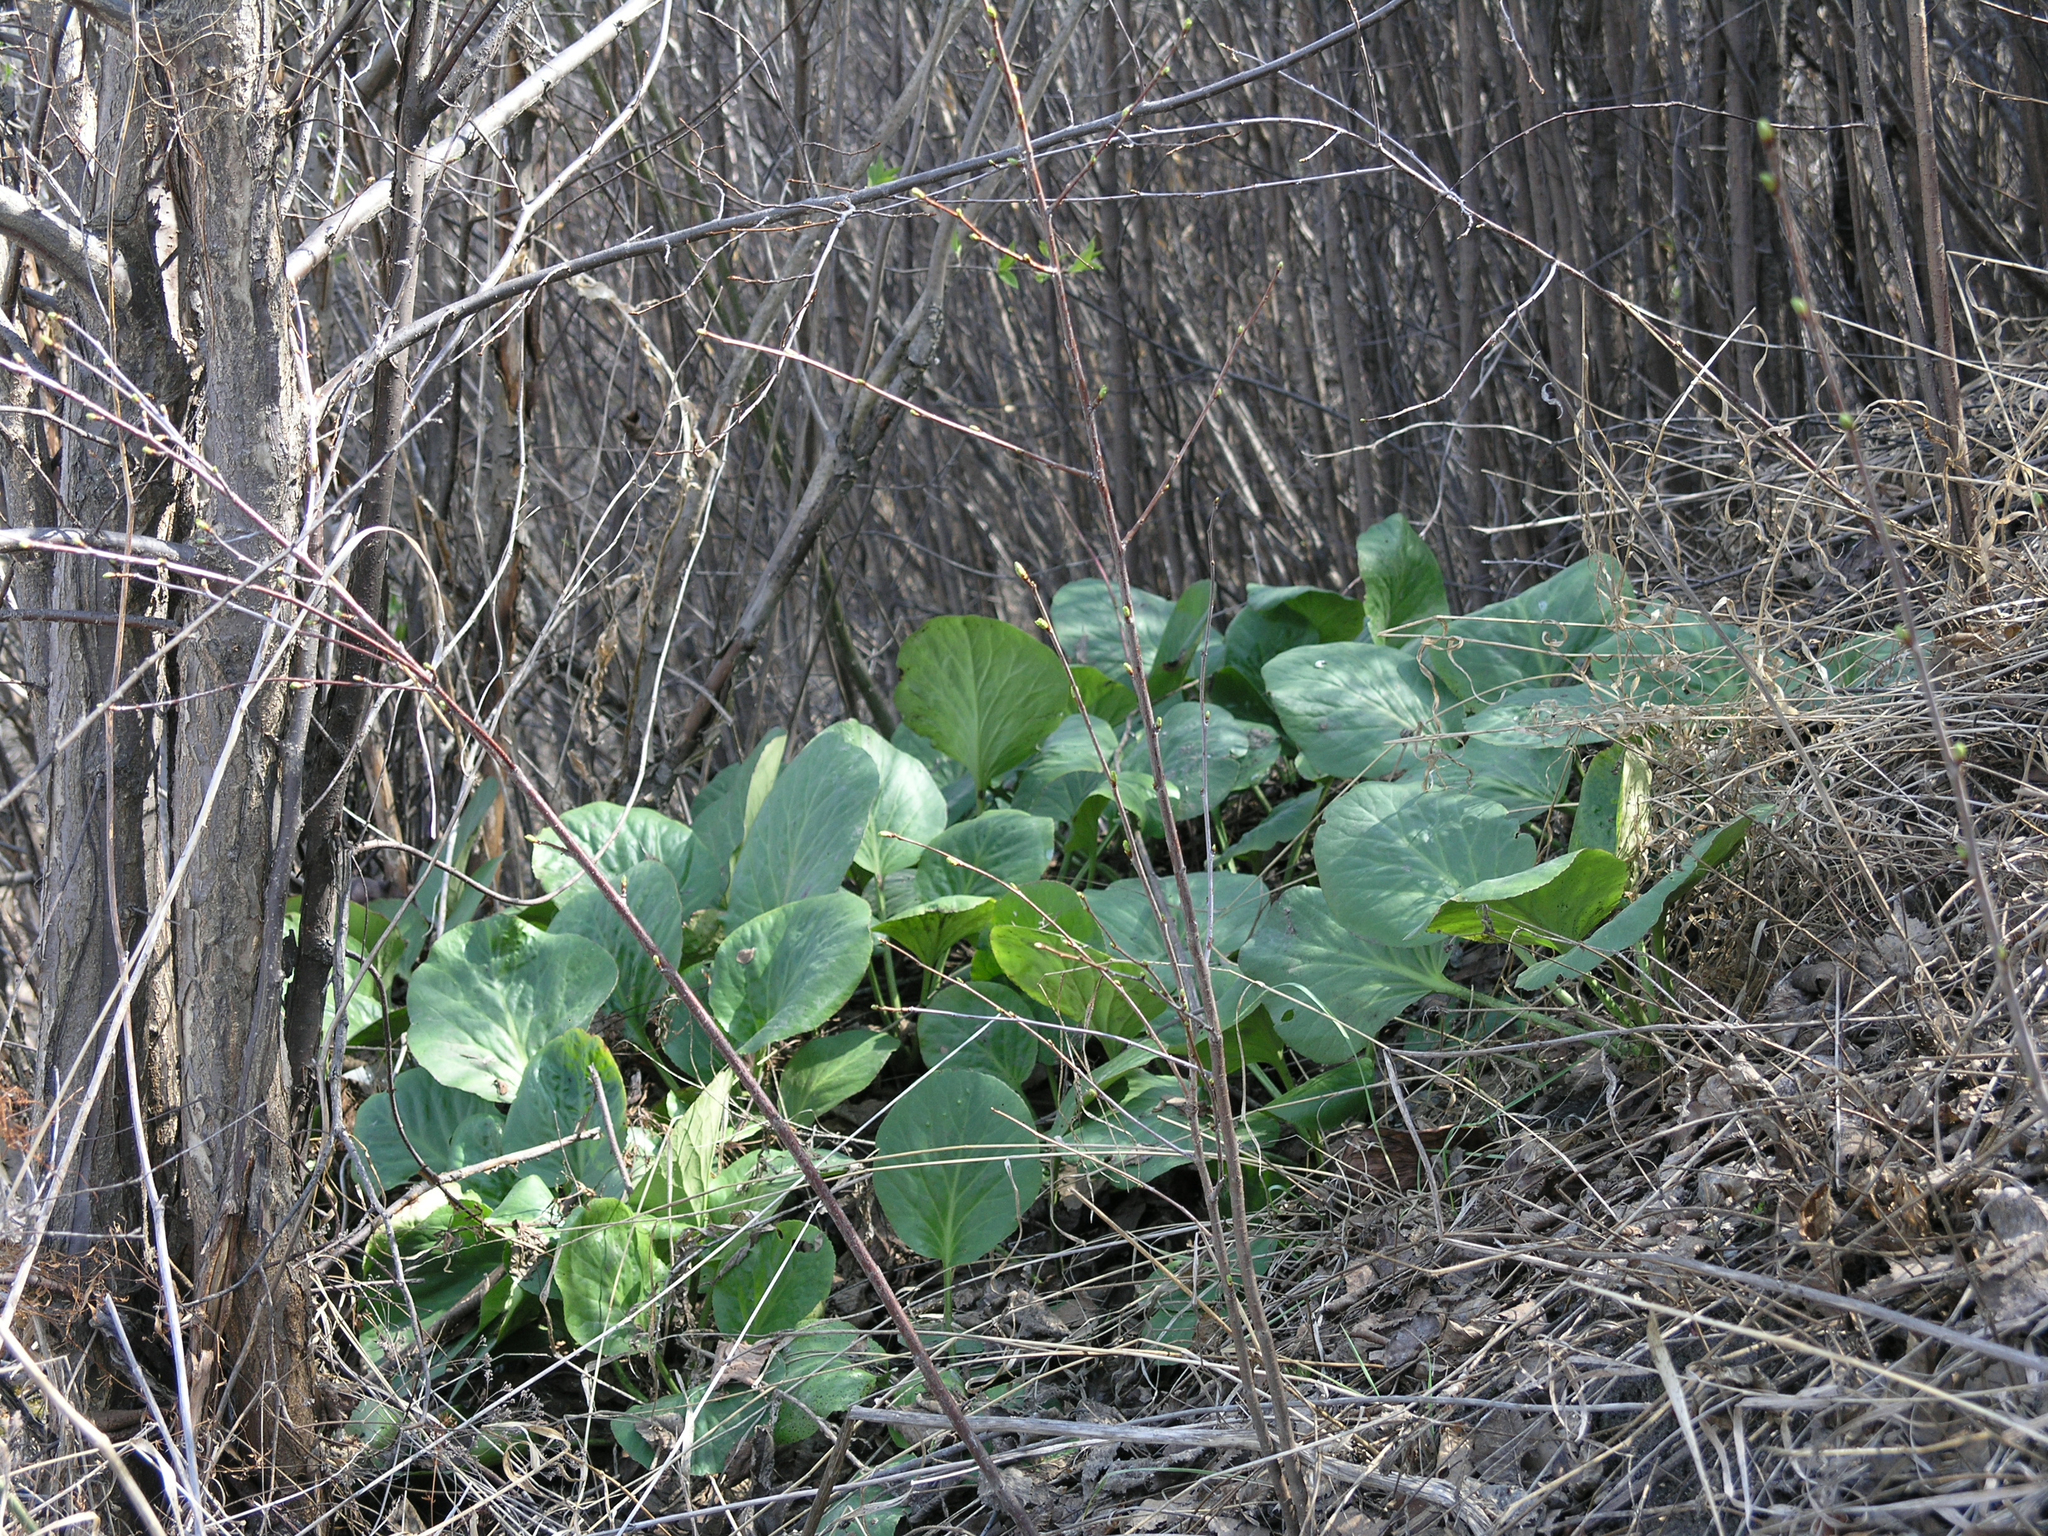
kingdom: Plantae
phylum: Tracheophyta
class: Magnoliopsida
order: Saxifragales
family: Saxifragaceae
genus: Bergenia
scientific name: Bergenia crassifolia
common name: Elephant-ears
